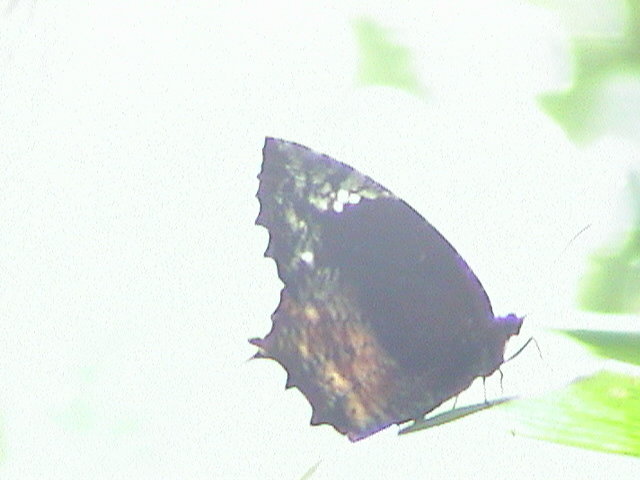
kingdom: Animalia
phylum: Arthropoda
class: Insecta
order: Lepidoptera
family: Nymphalidae
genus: Elymnias
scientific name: Elymnias caudata
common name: Tailed palmfly
